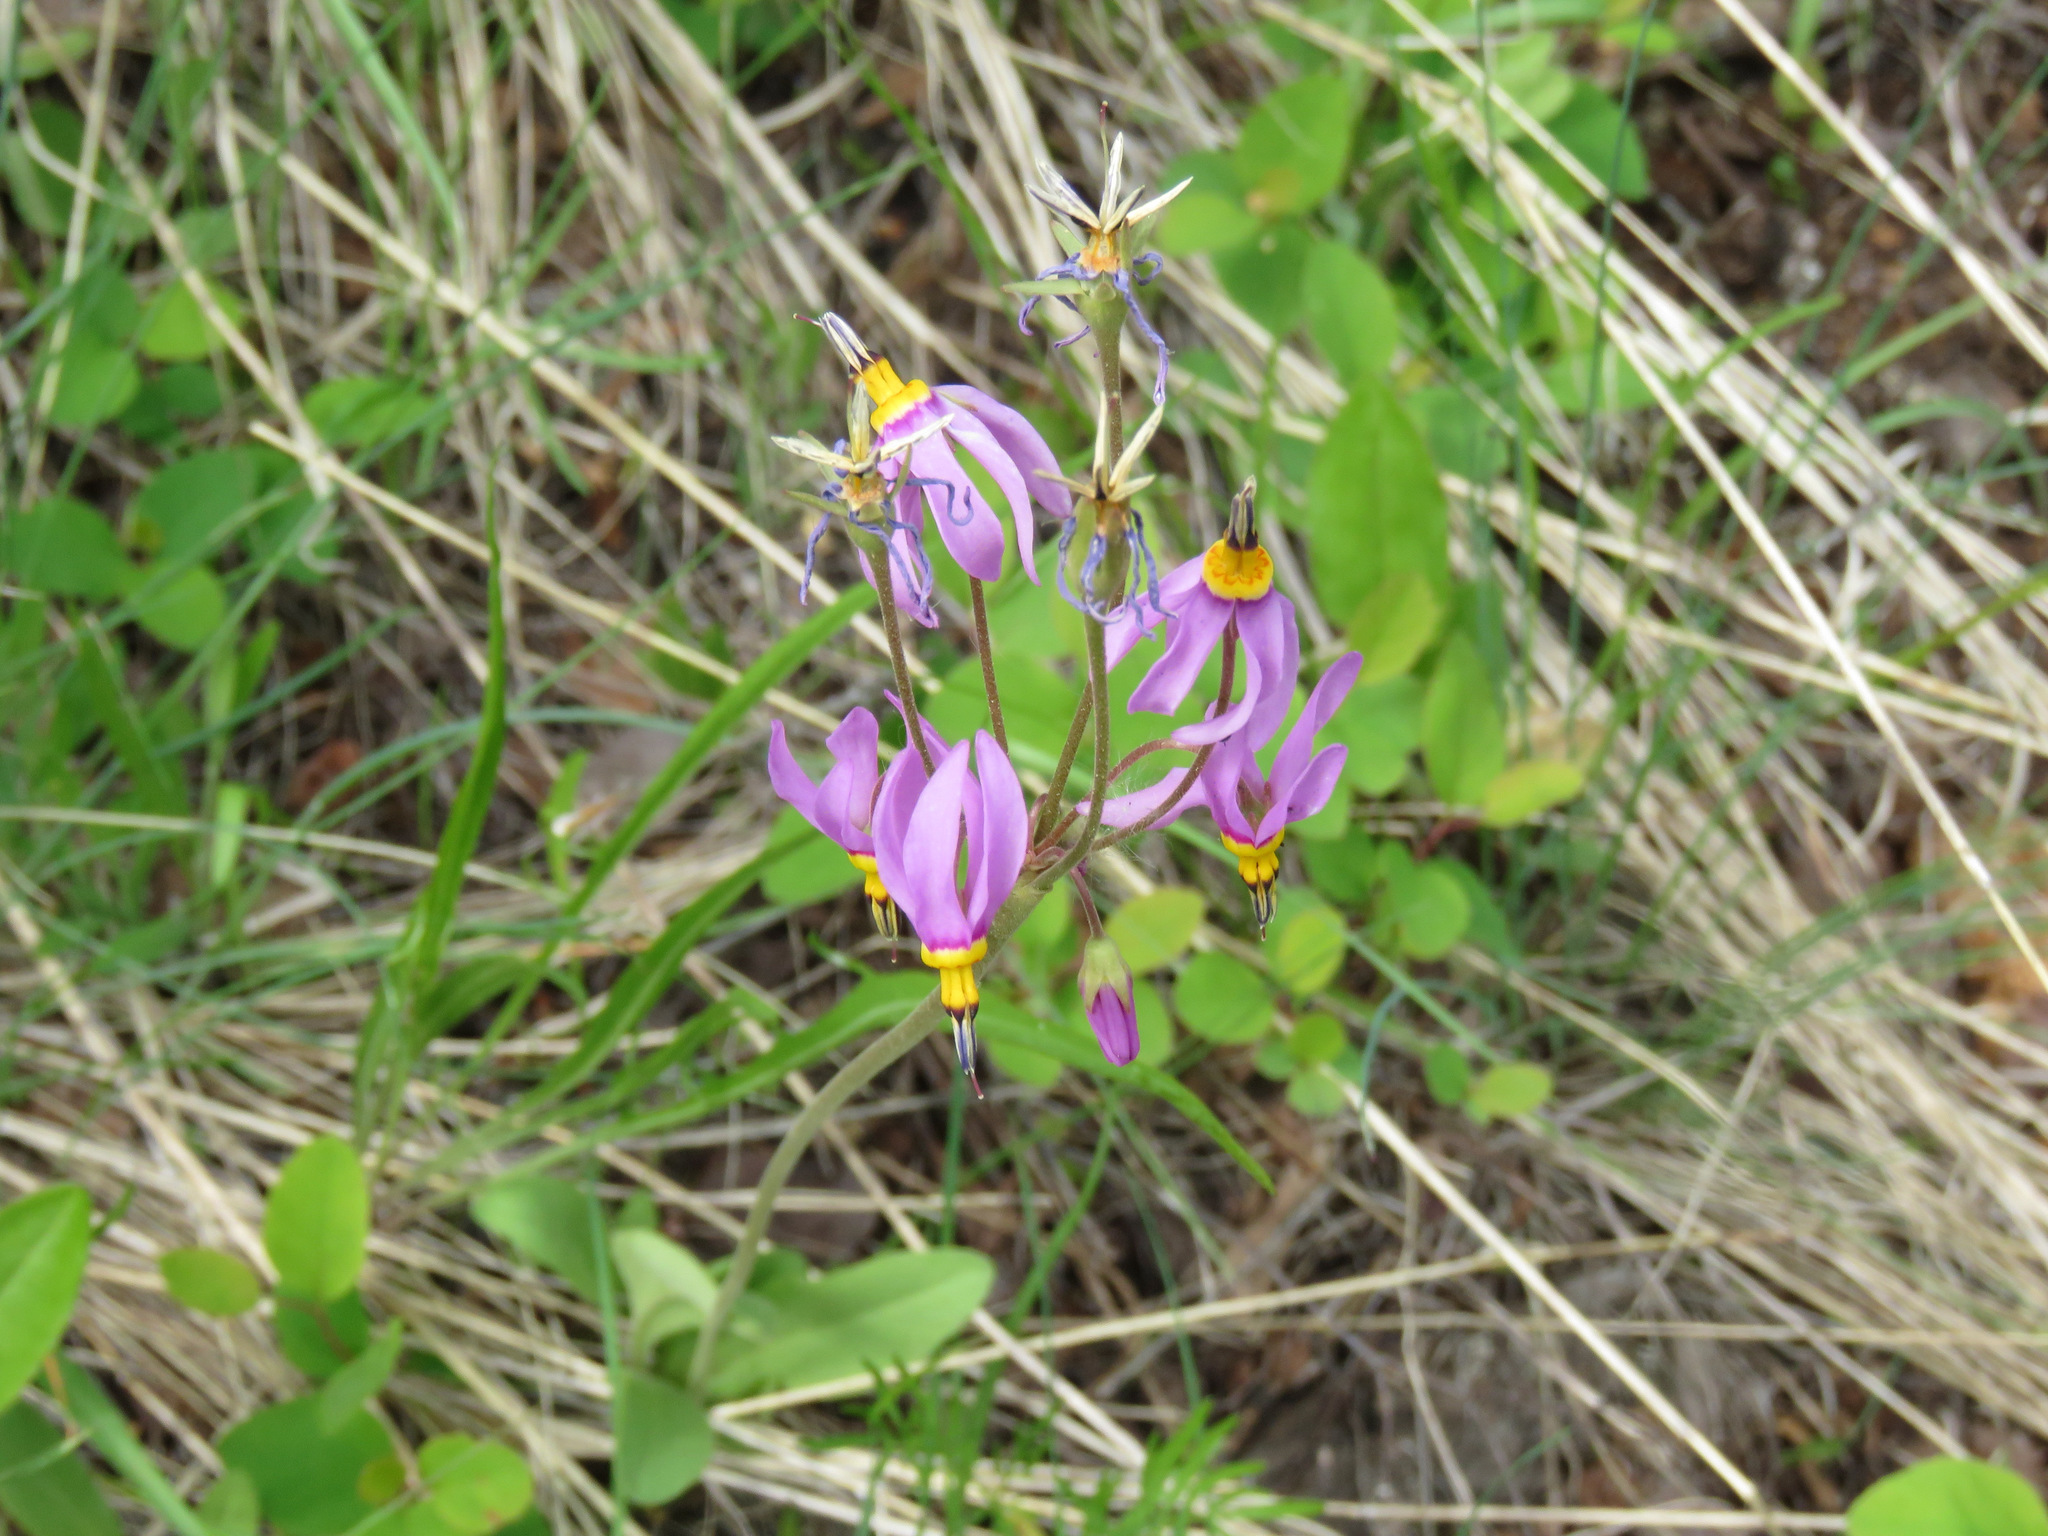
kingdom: Plantae
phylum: Tracheophyta
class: Magnoliopsida
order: Ericales
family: Primulaceae
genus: Dodecatheon
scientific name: Dodecatheon pulchellum
